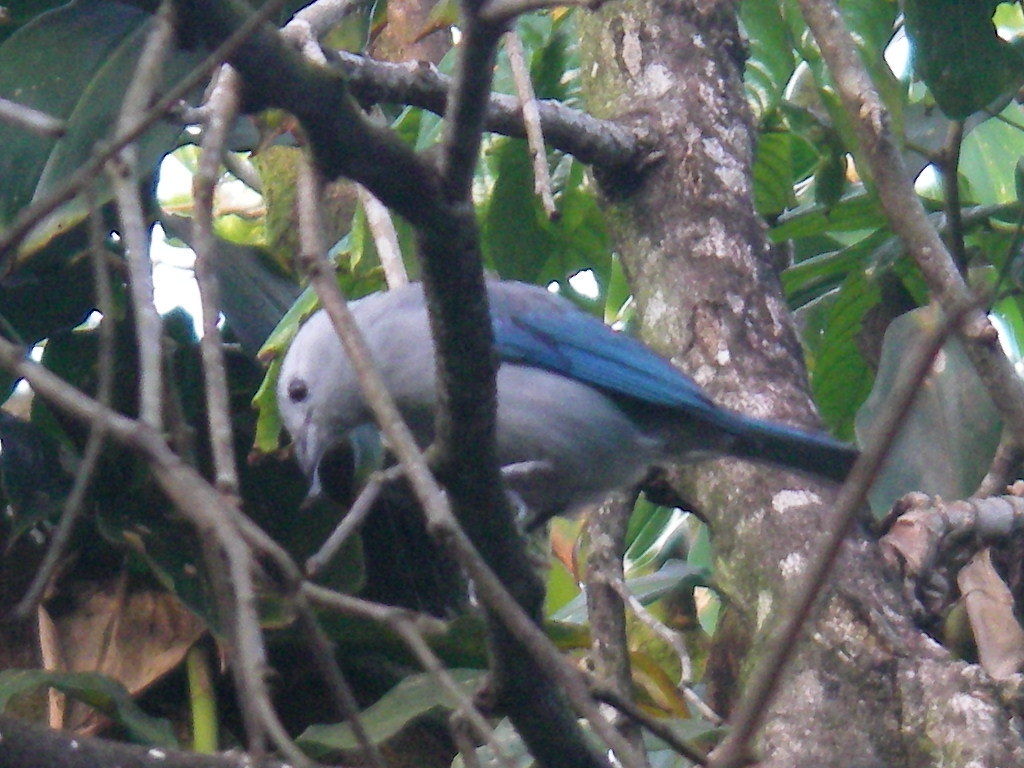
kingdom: Animalia
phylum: Chordata
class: Aves
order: Passeriformes
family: Thraupidae
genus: Thraupis
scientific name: Thraupis episcopus
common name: Blue-grey tanager
